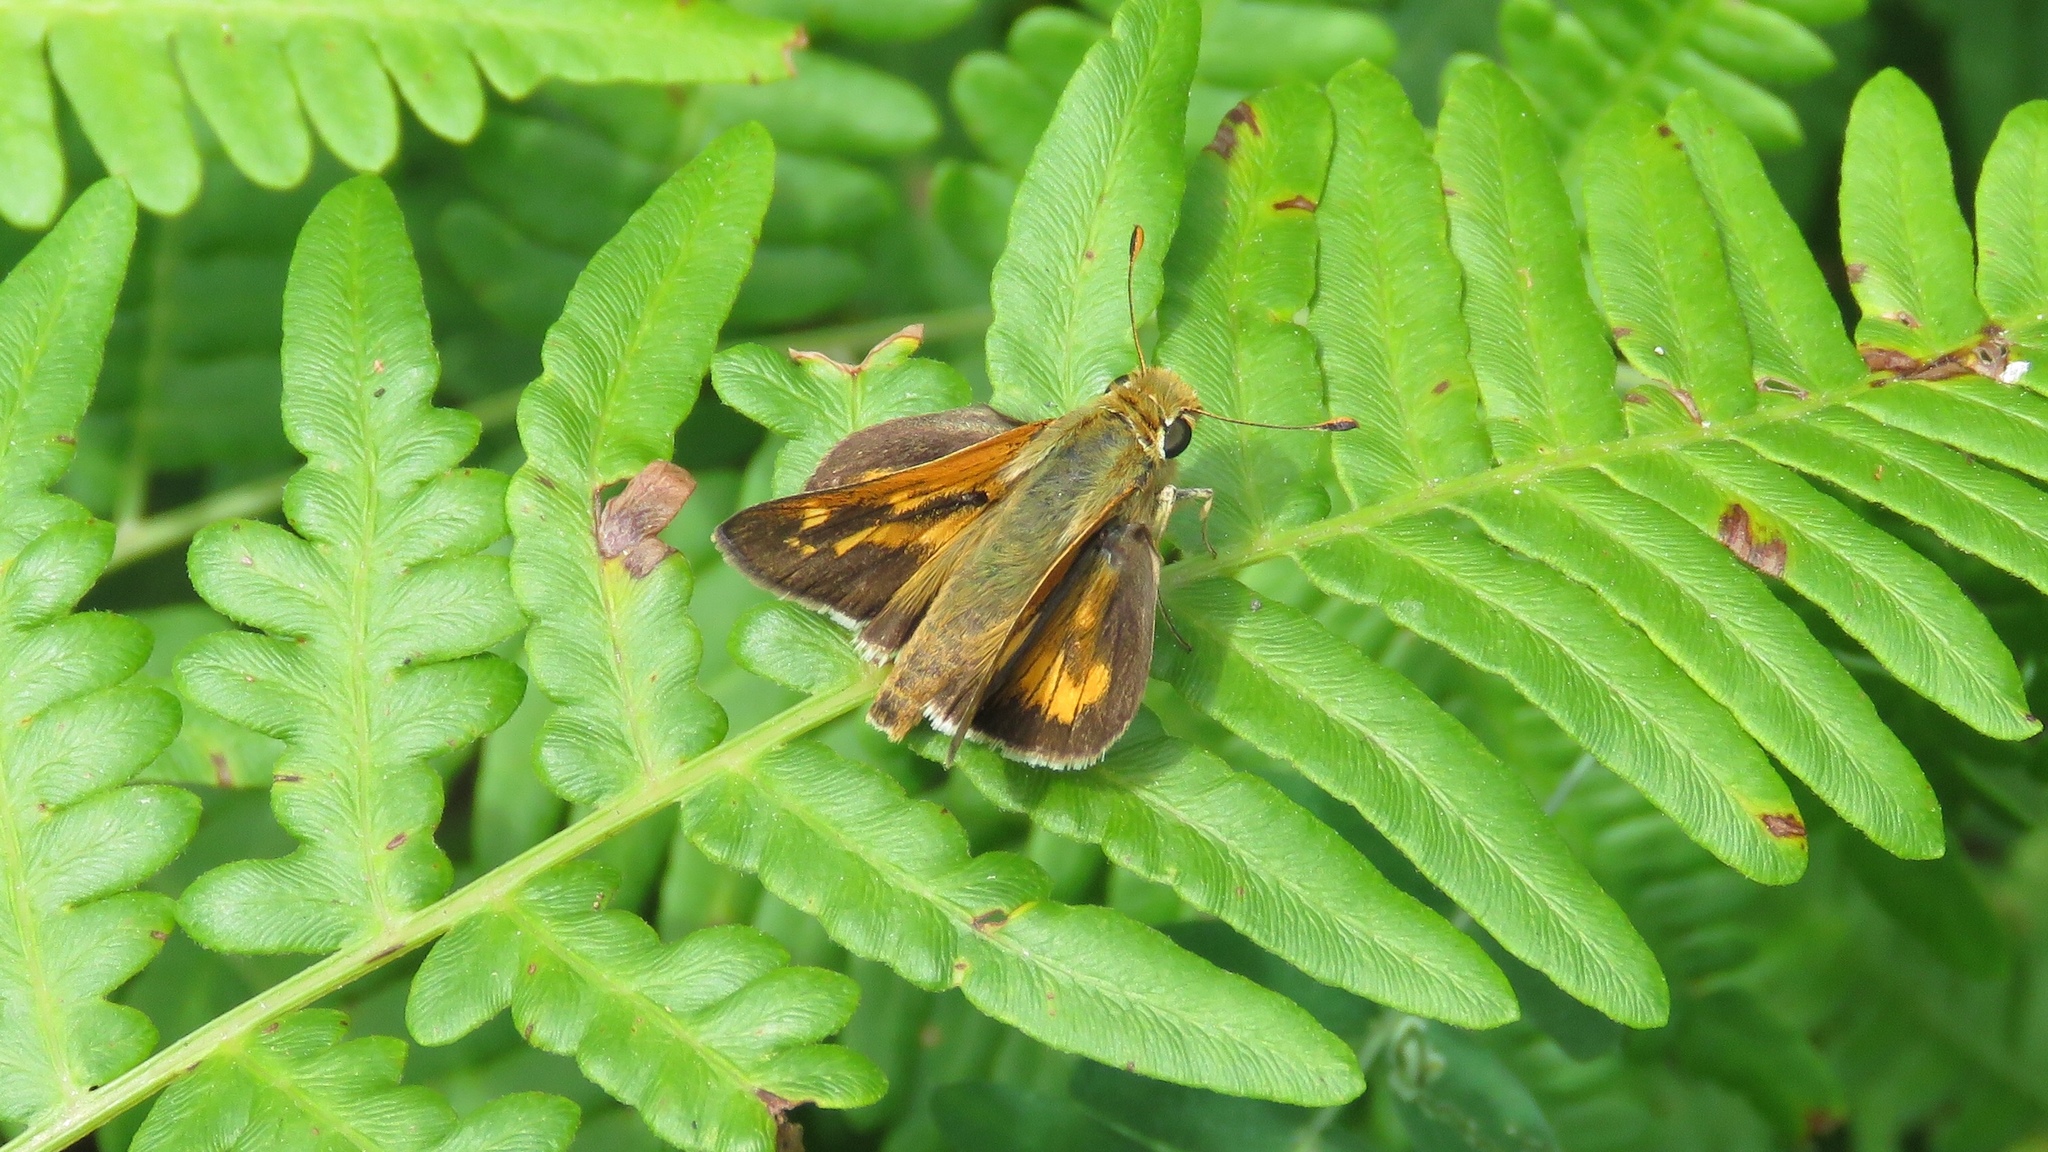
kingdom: Animalia
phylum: Arthropoda
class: Insecta
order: Lepidoptera
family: Hesperiidae
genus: Hesperia
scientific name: Hesperia leonardus
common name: Leonard's skipper
